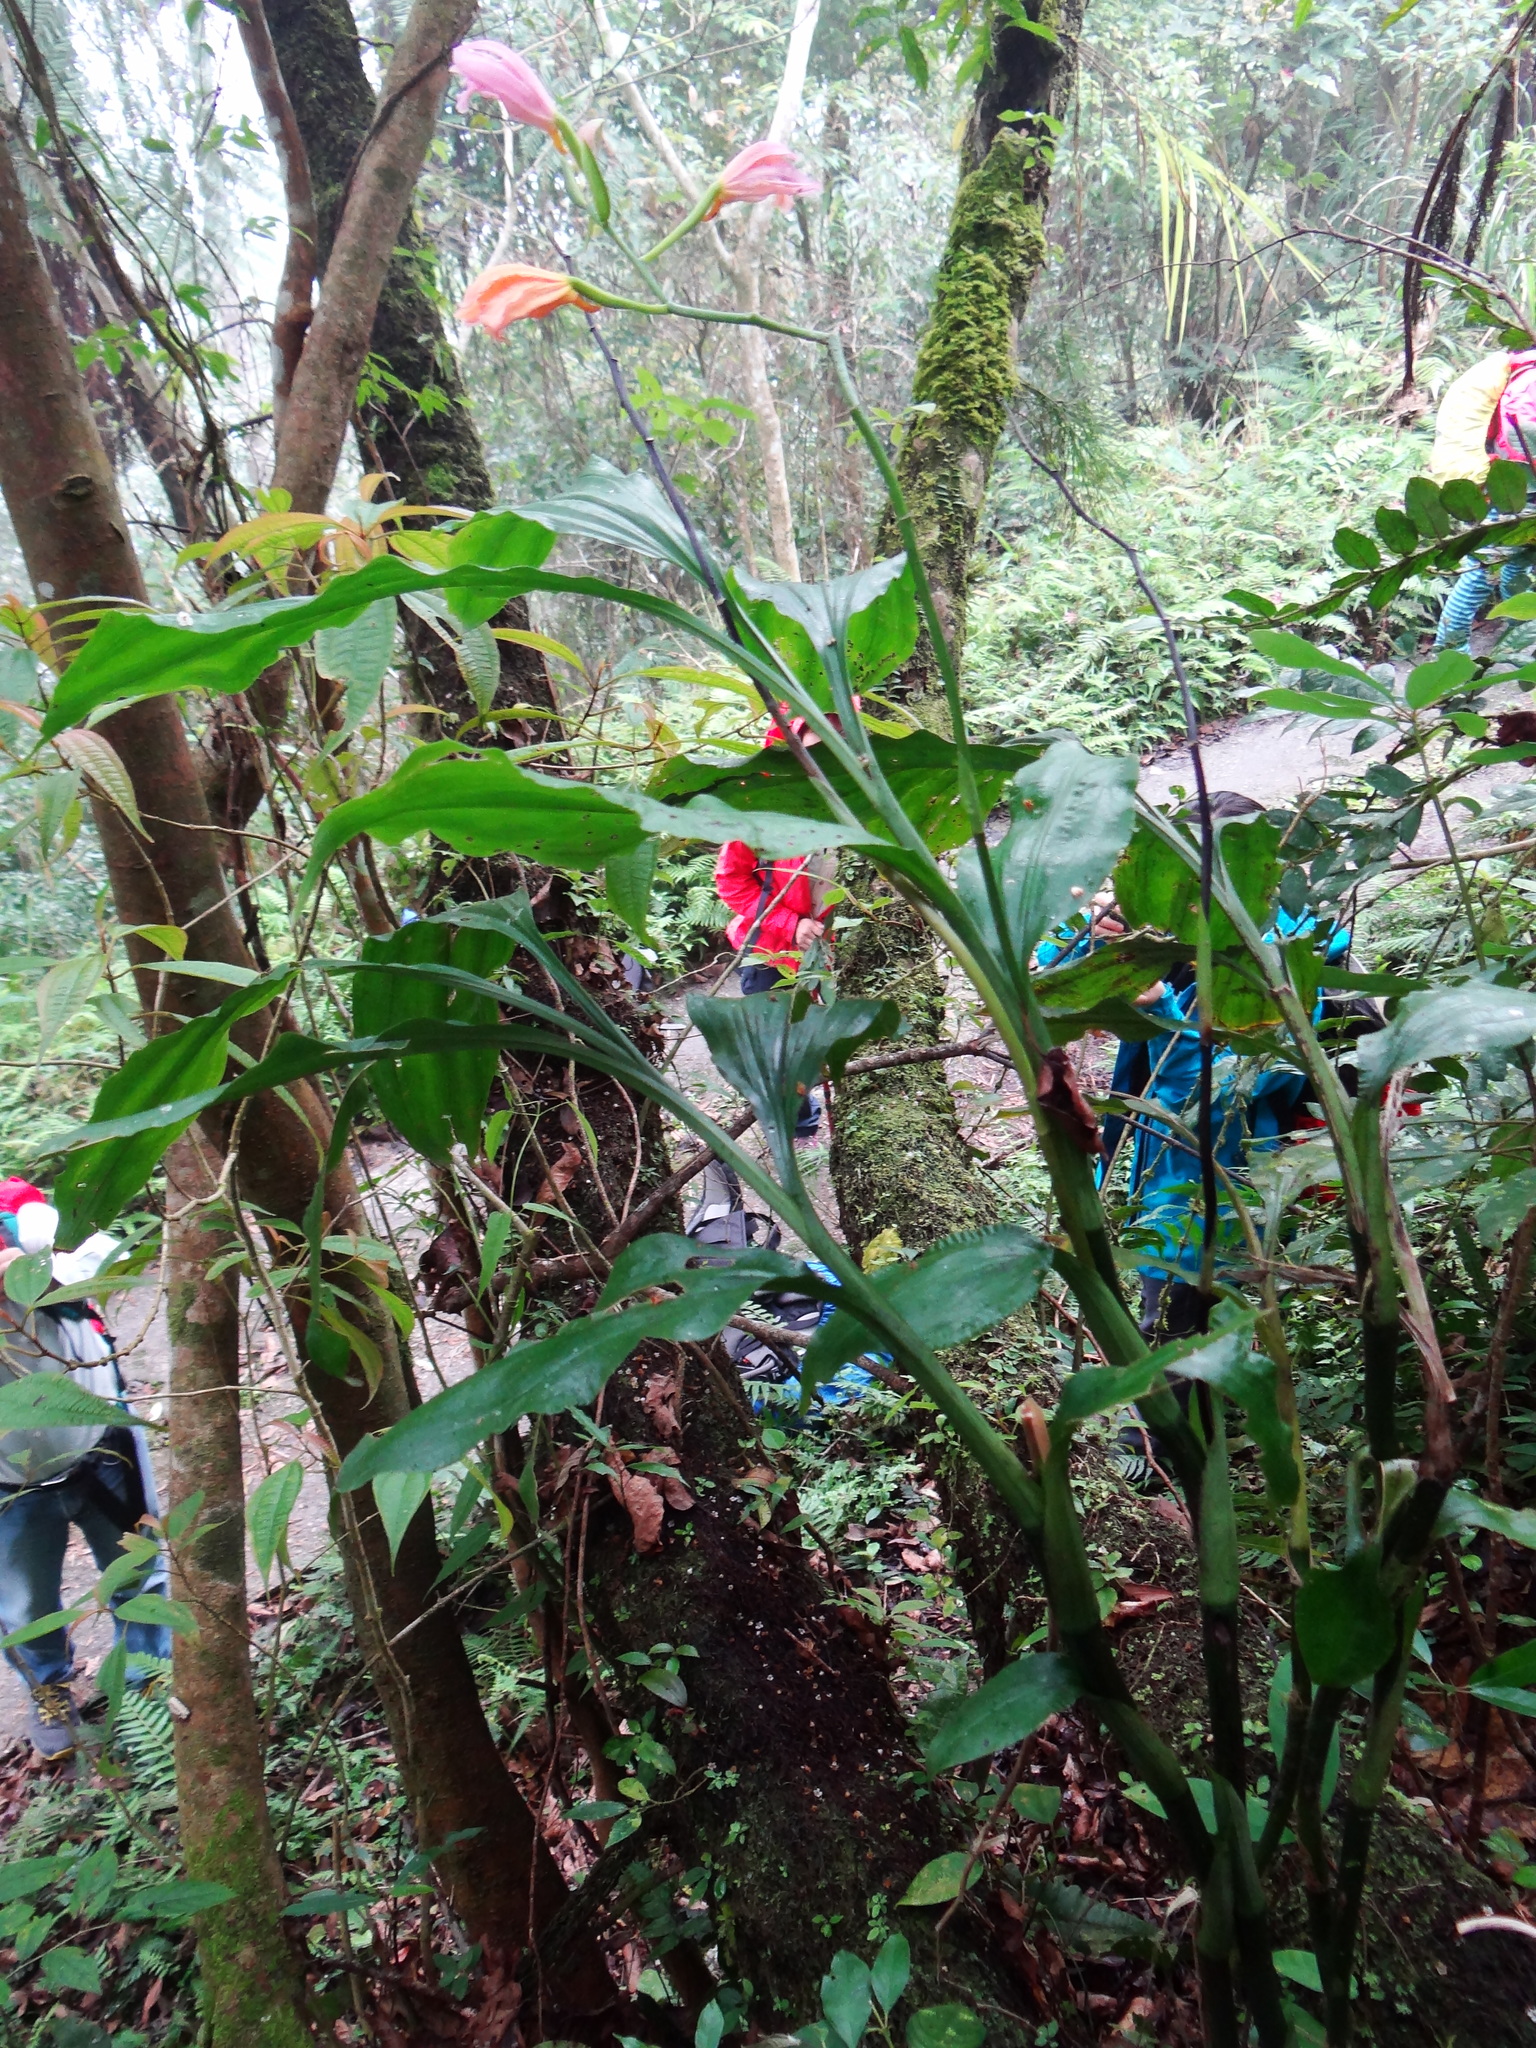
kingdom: Plantae
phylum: Tracheophyta
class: Liliopsida
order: Asparagales
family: Orchidaceae
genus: Calanthe
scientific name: Calanthe mishmensis
